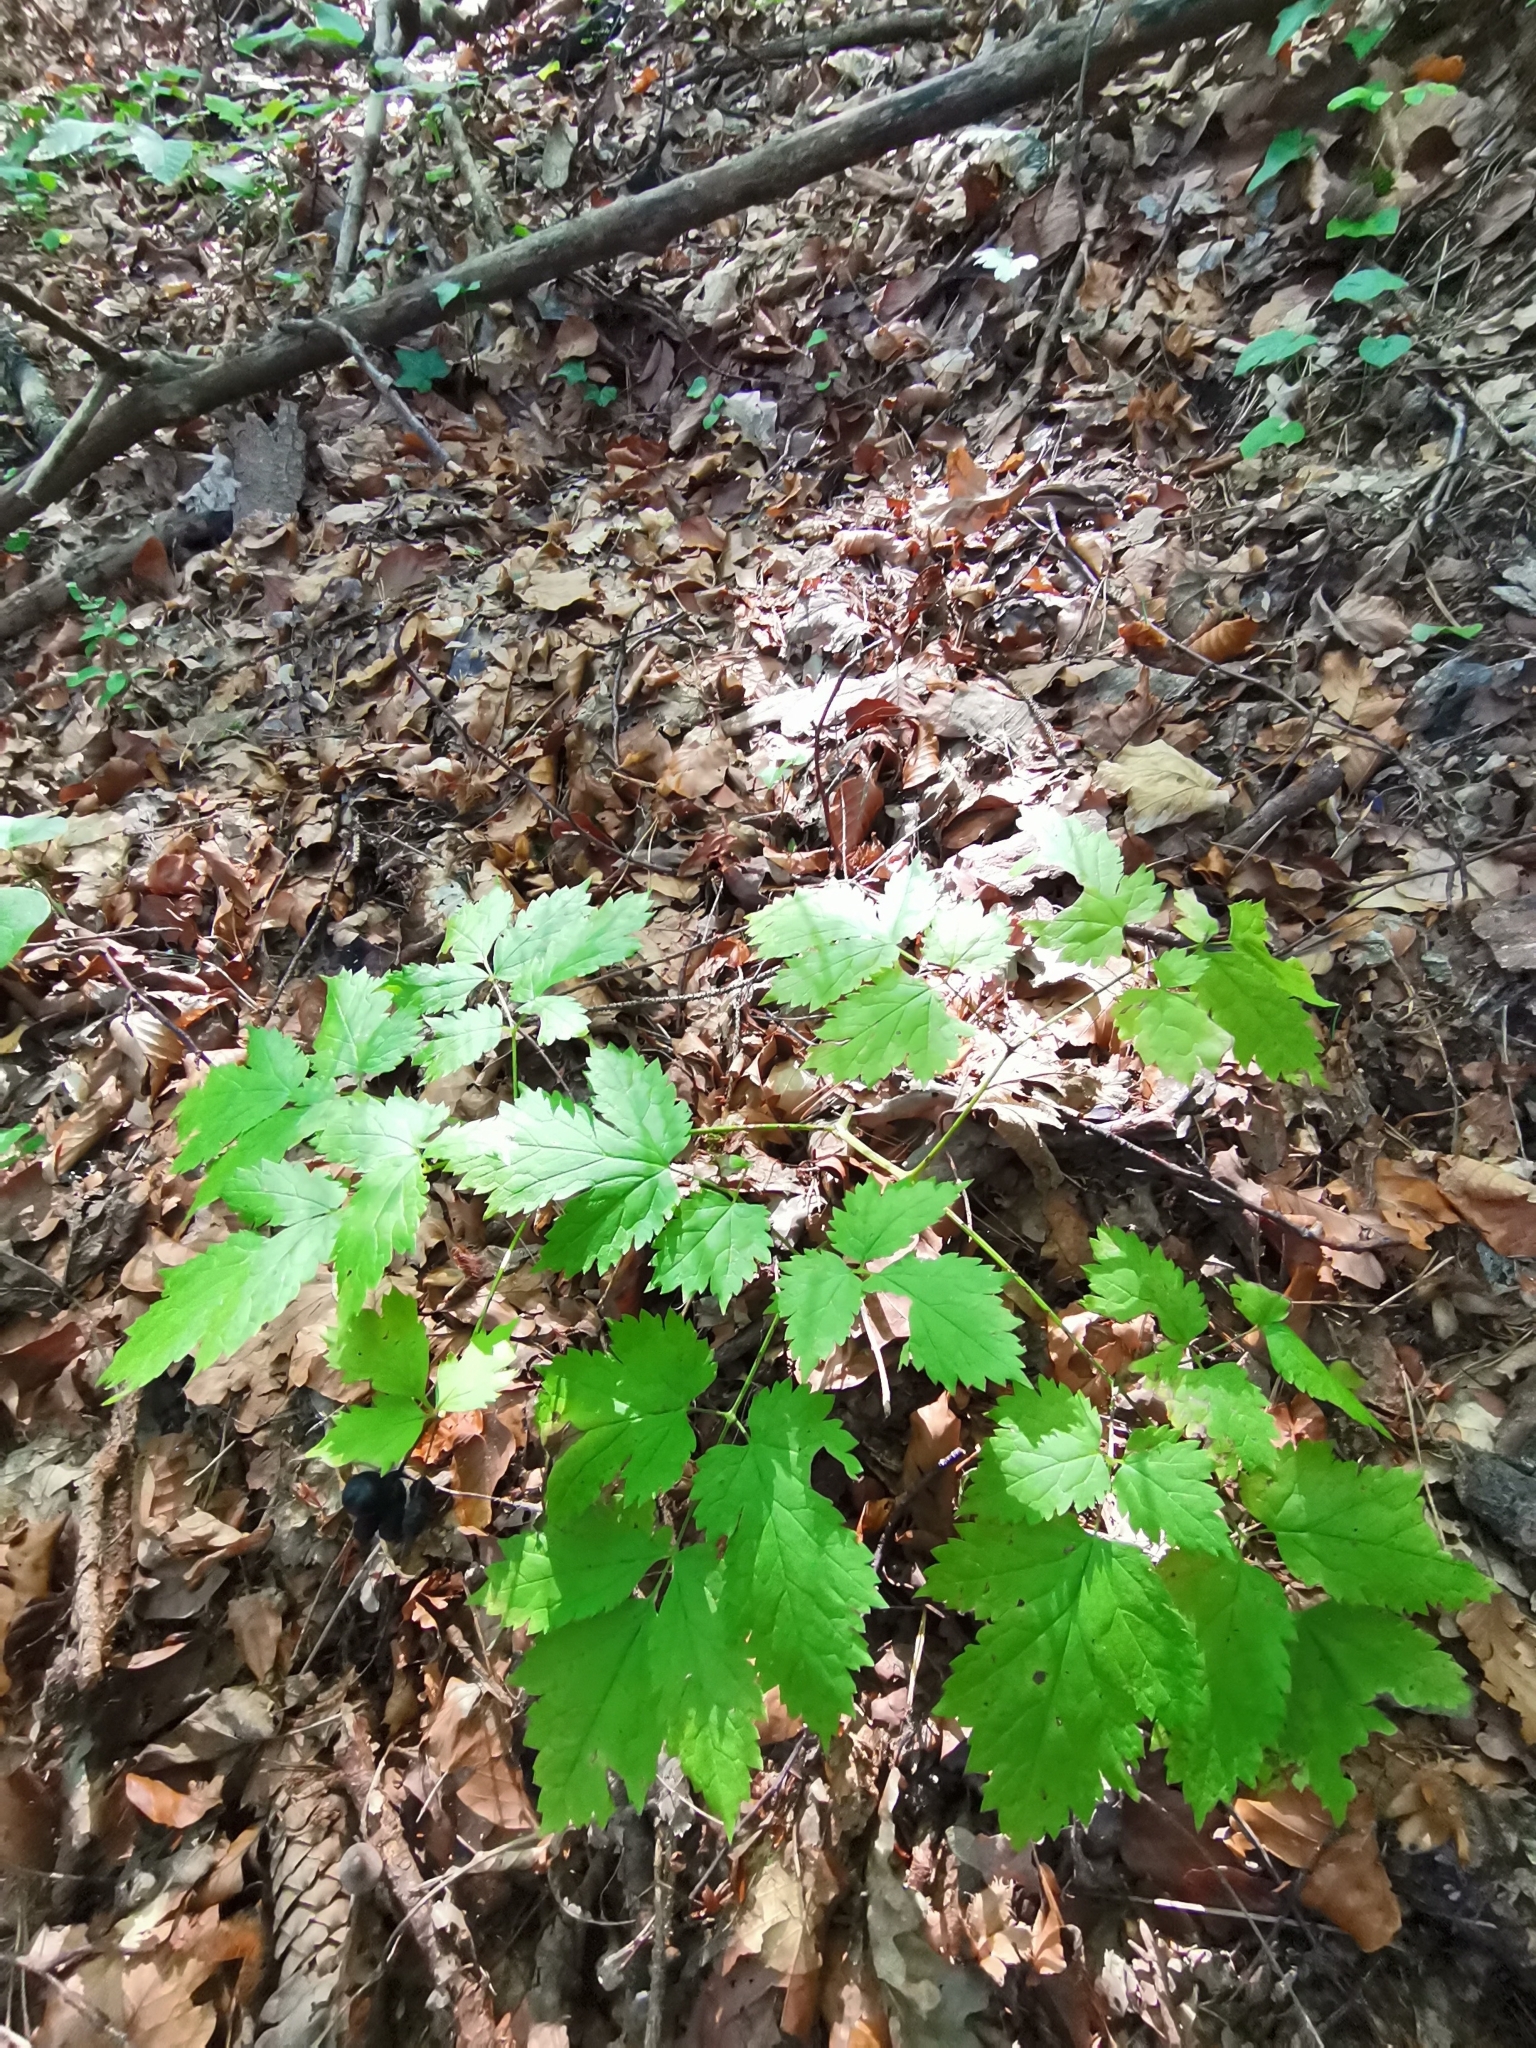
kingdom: Plantae
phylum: Tracheophyta
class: Magnoliopsida
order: Ranunculales
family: Ranunculaceae
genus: Actaea
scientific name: Actaea spicata
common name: Baneberry
